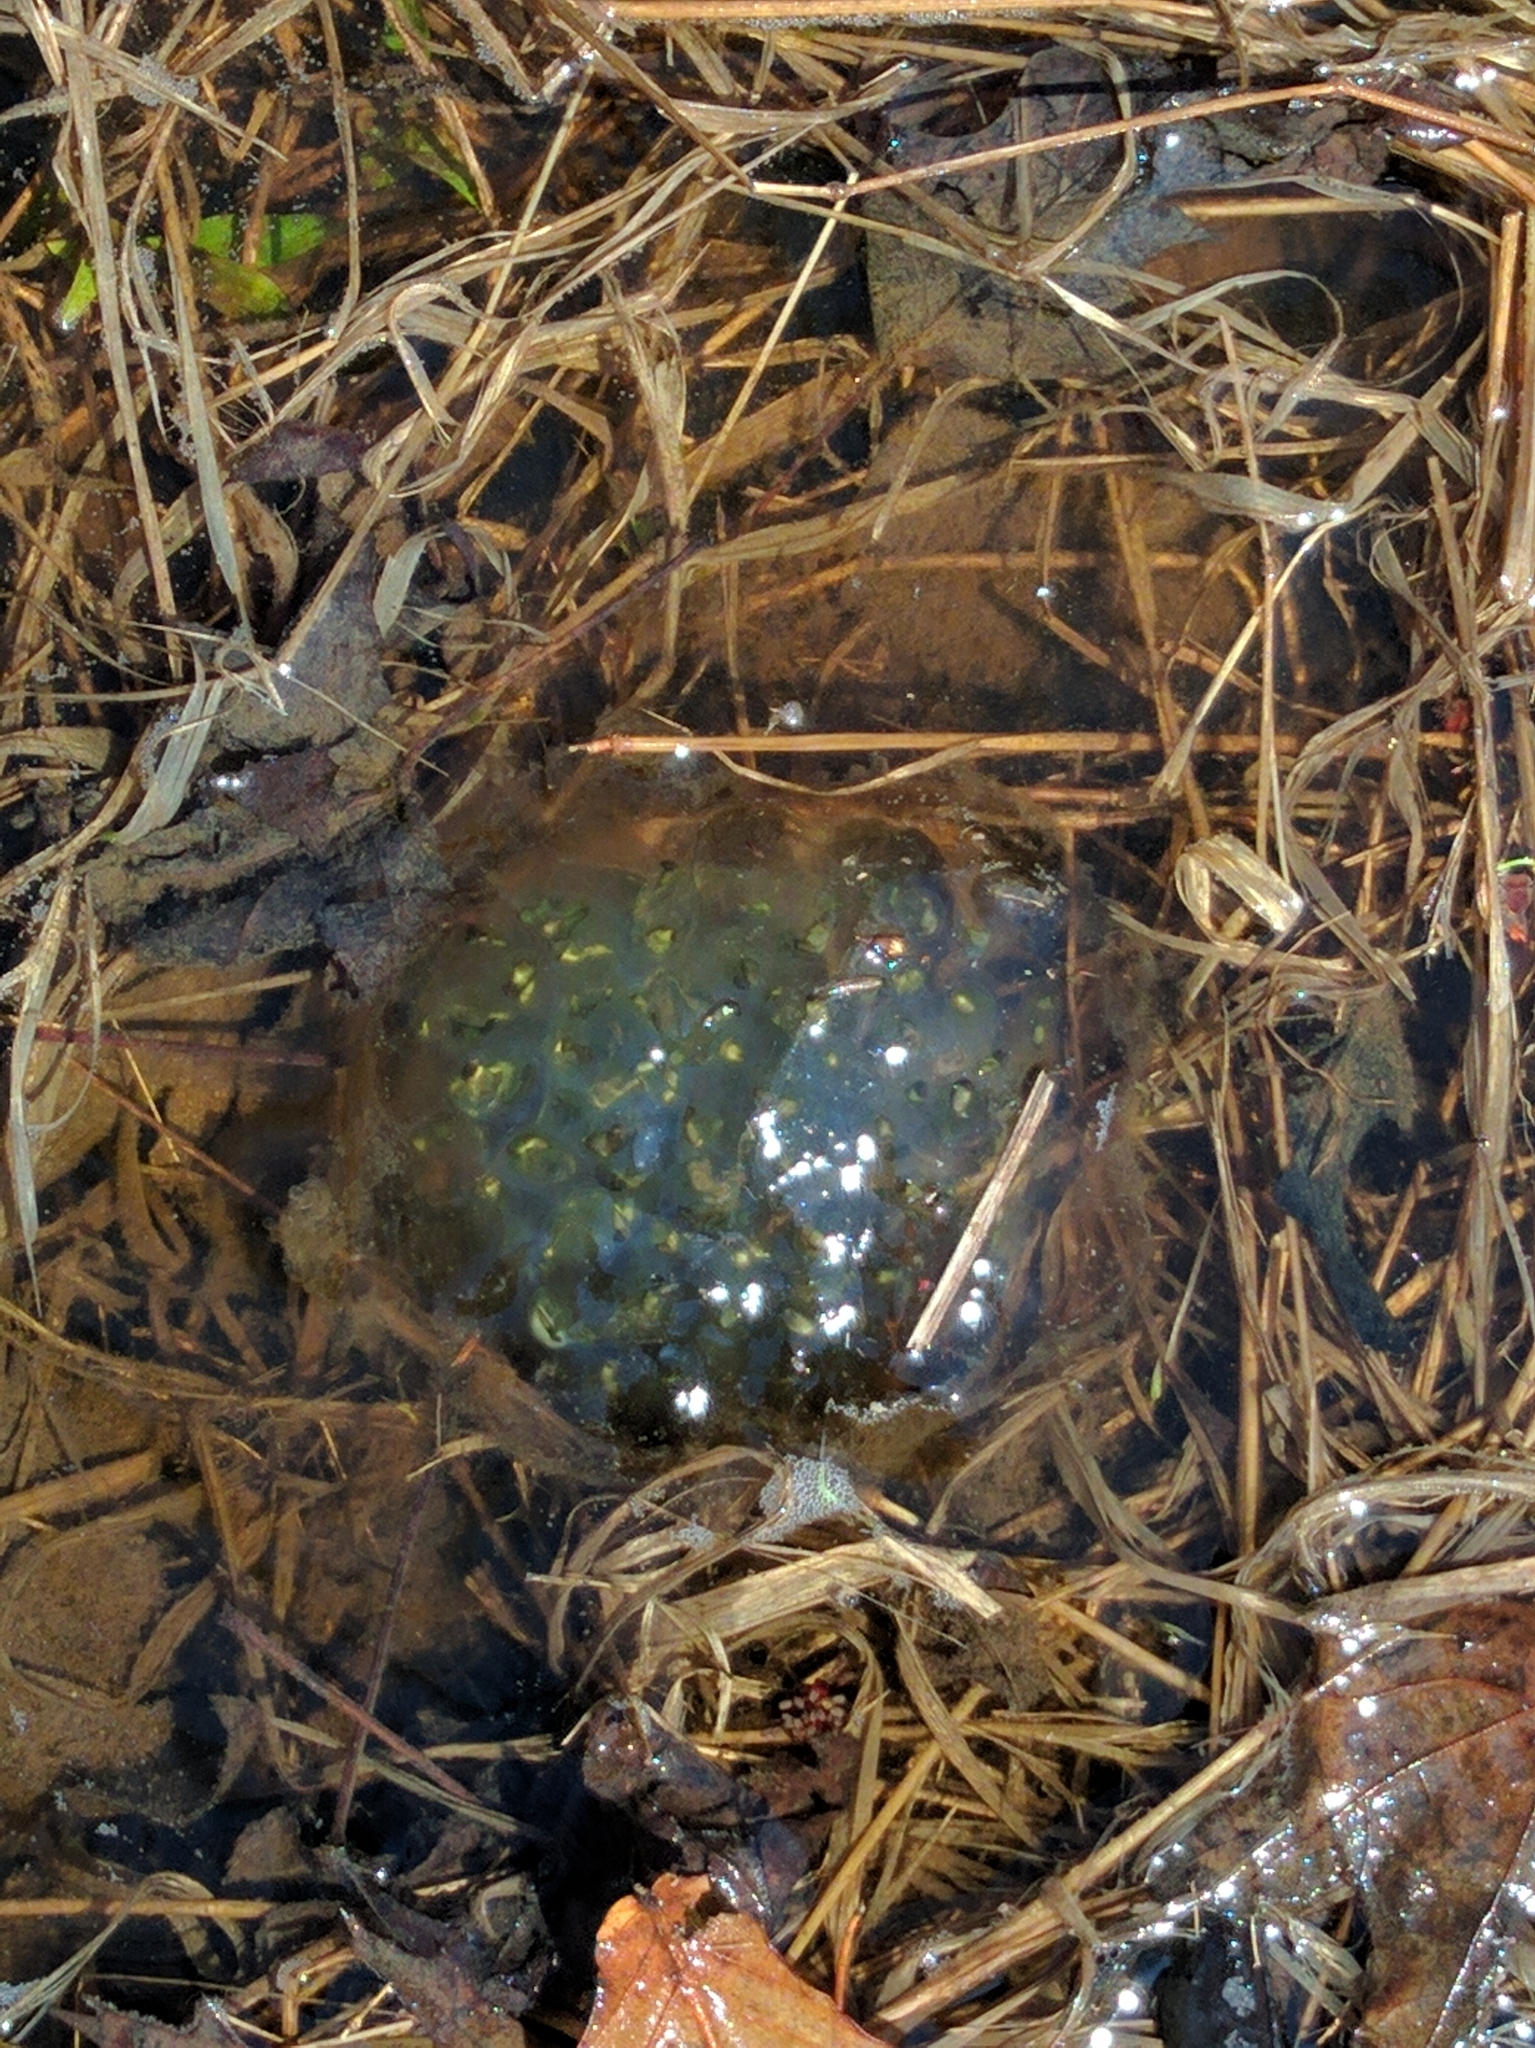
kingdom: Animalia
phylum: Chordata
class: Amphibia
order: Caudata
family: Ambystomatidae
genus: Ambystoma
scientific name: Ambystoma maculatum
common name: Spotted salamander
